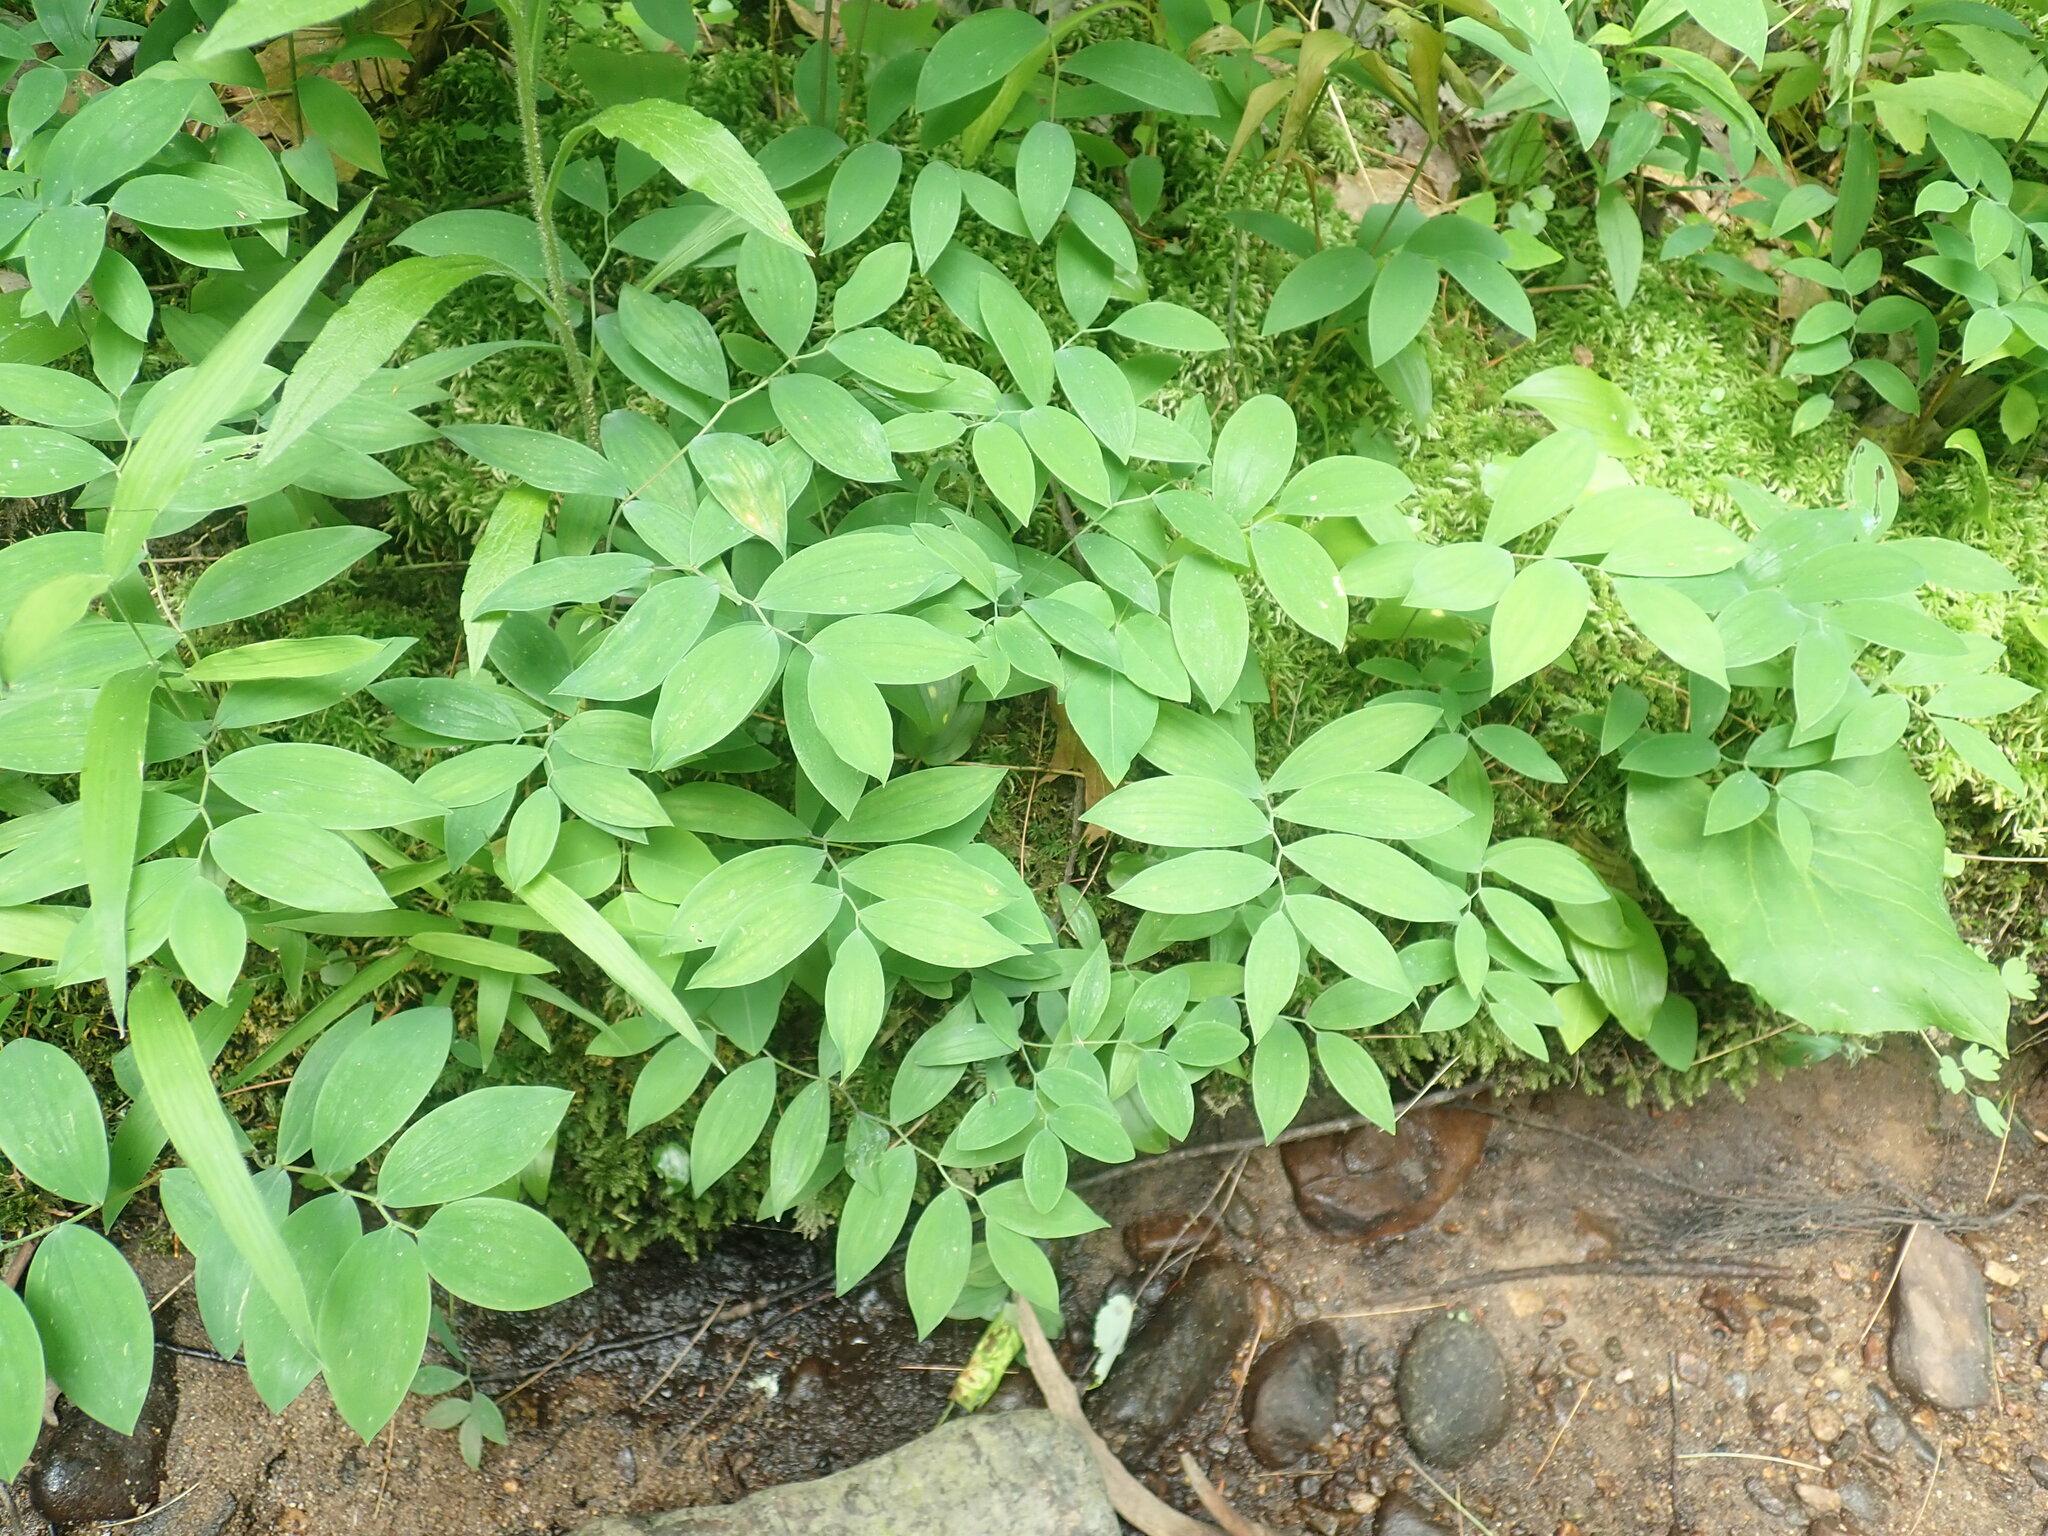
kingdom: Plantae
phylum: Tracheophyta
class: Liliopsida
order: Liliales
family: Colchicaceae
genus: Uvularia
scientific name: Uvularia sessilifolia
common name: Straw-lily
